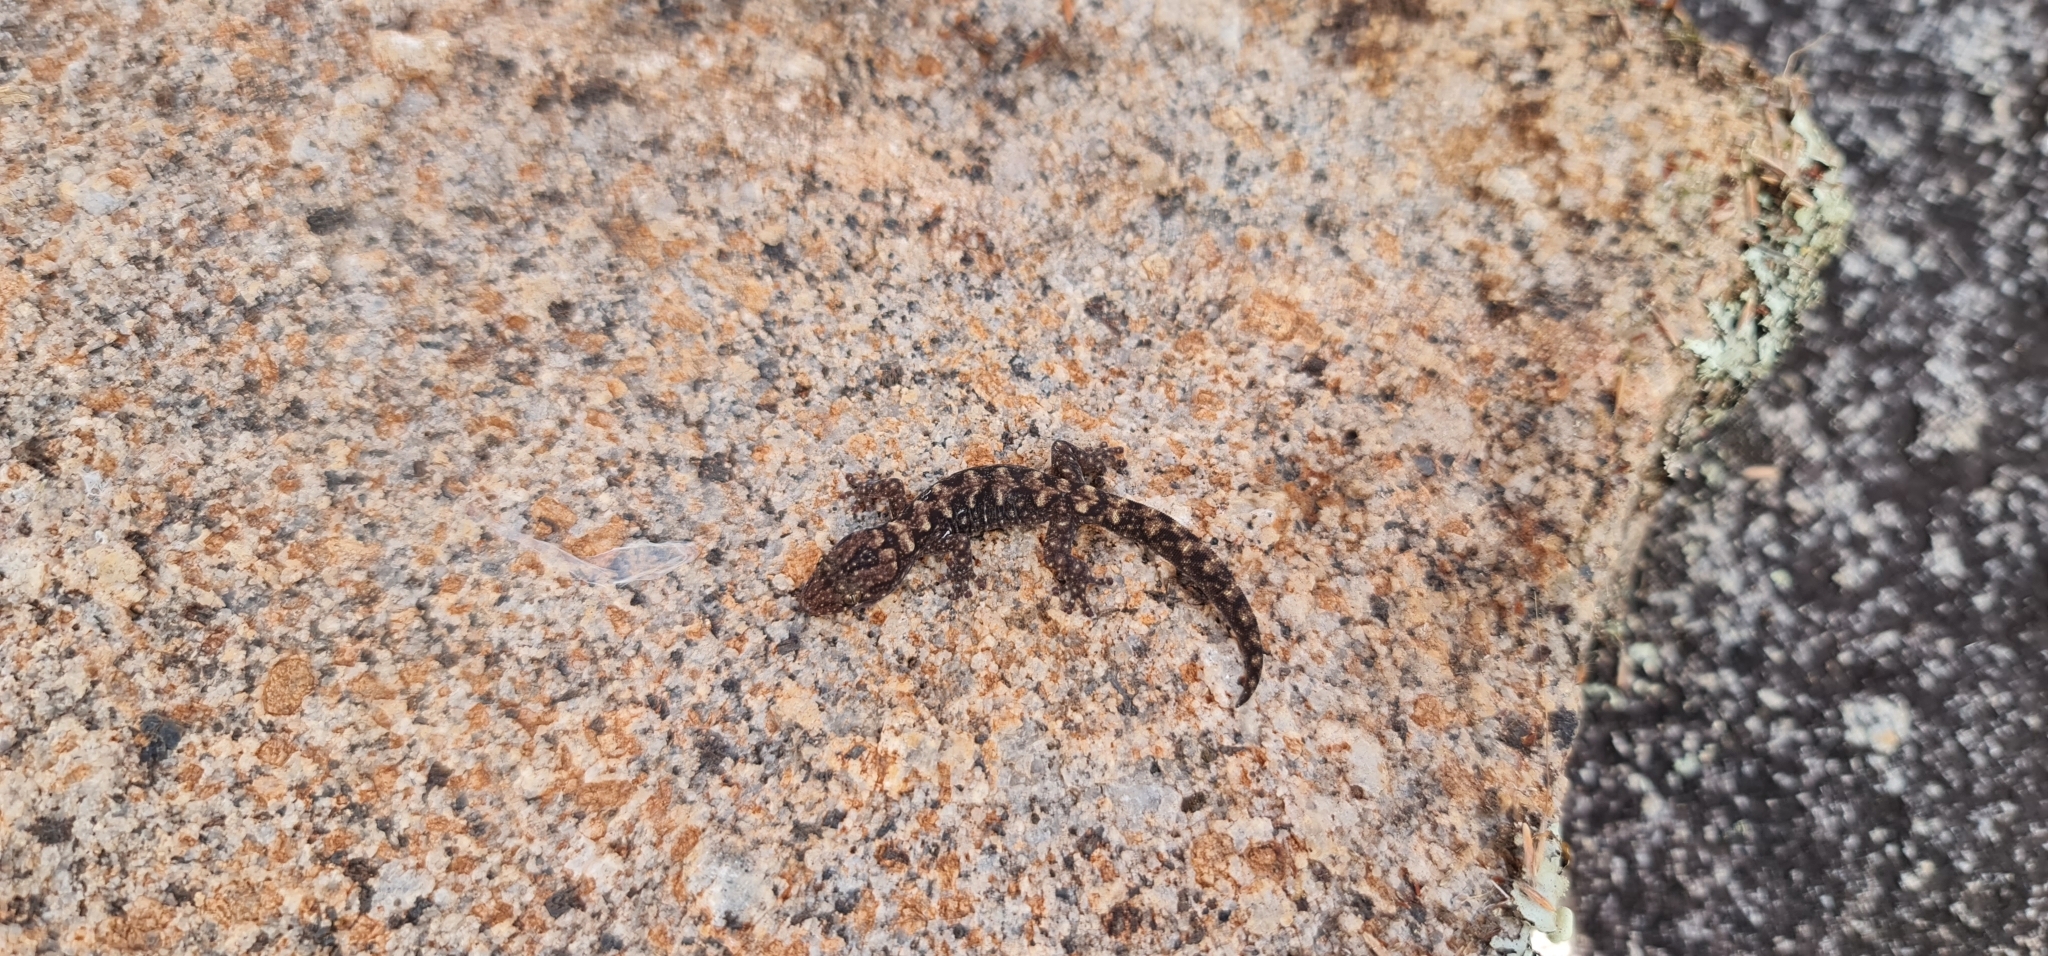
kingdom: Animalia
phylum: Chordata
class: Squamata
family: Diplodactylidae
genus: Amalosia
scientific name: Amalosia lesueurii
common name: Lesueur's gecko
